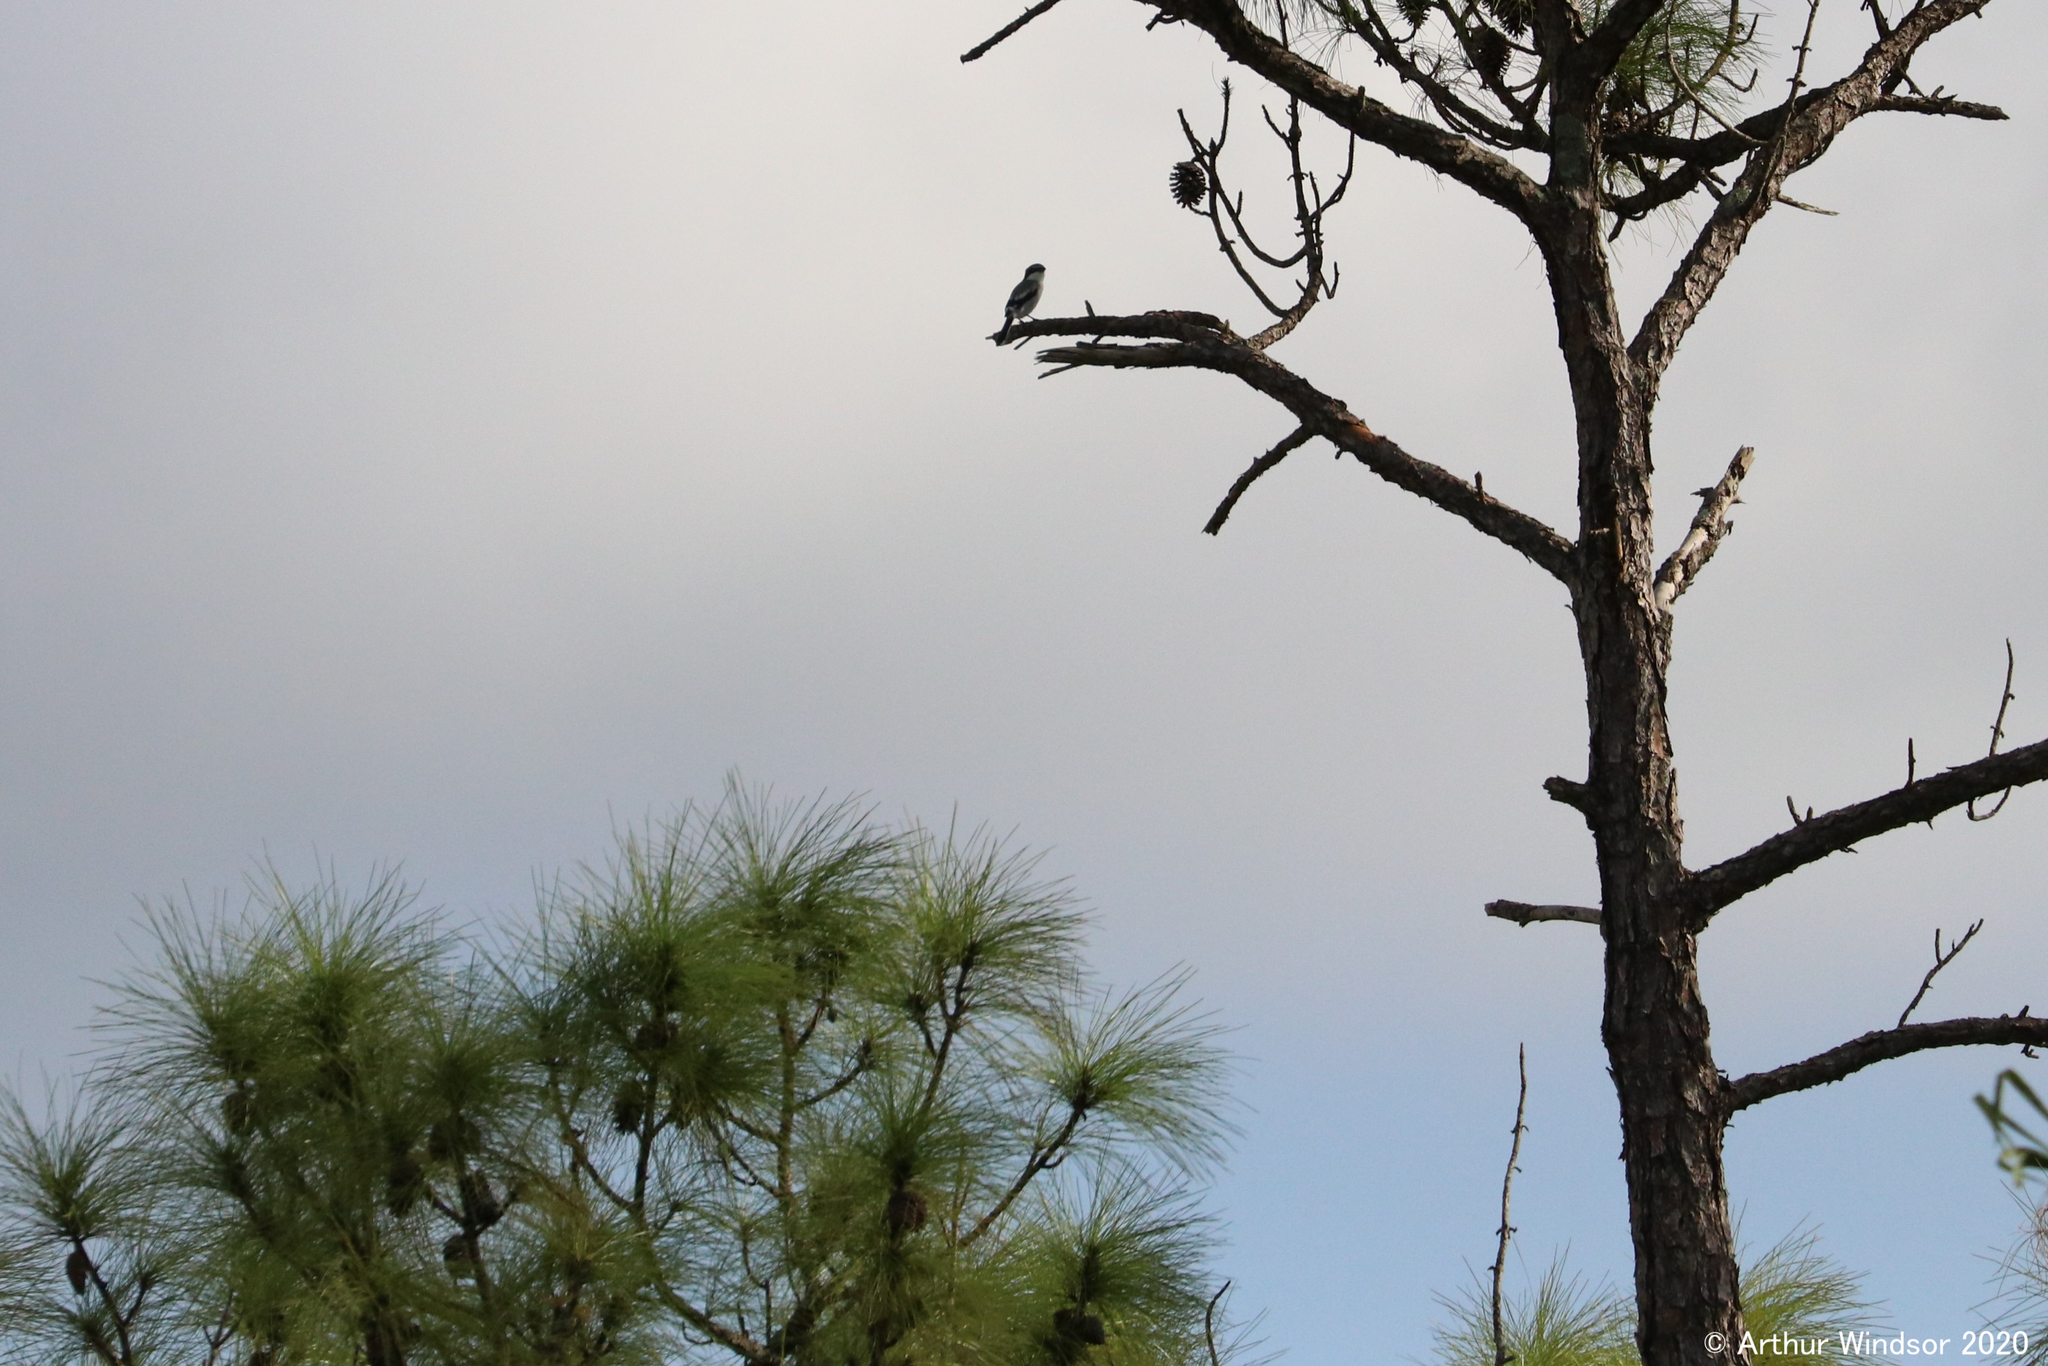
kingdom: Animalia
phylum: Chordata
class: Aves
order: Passeriformes
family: Laniidae
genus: Lanius
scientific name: Lanius ludovicianus
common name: Loggerhead shrike
